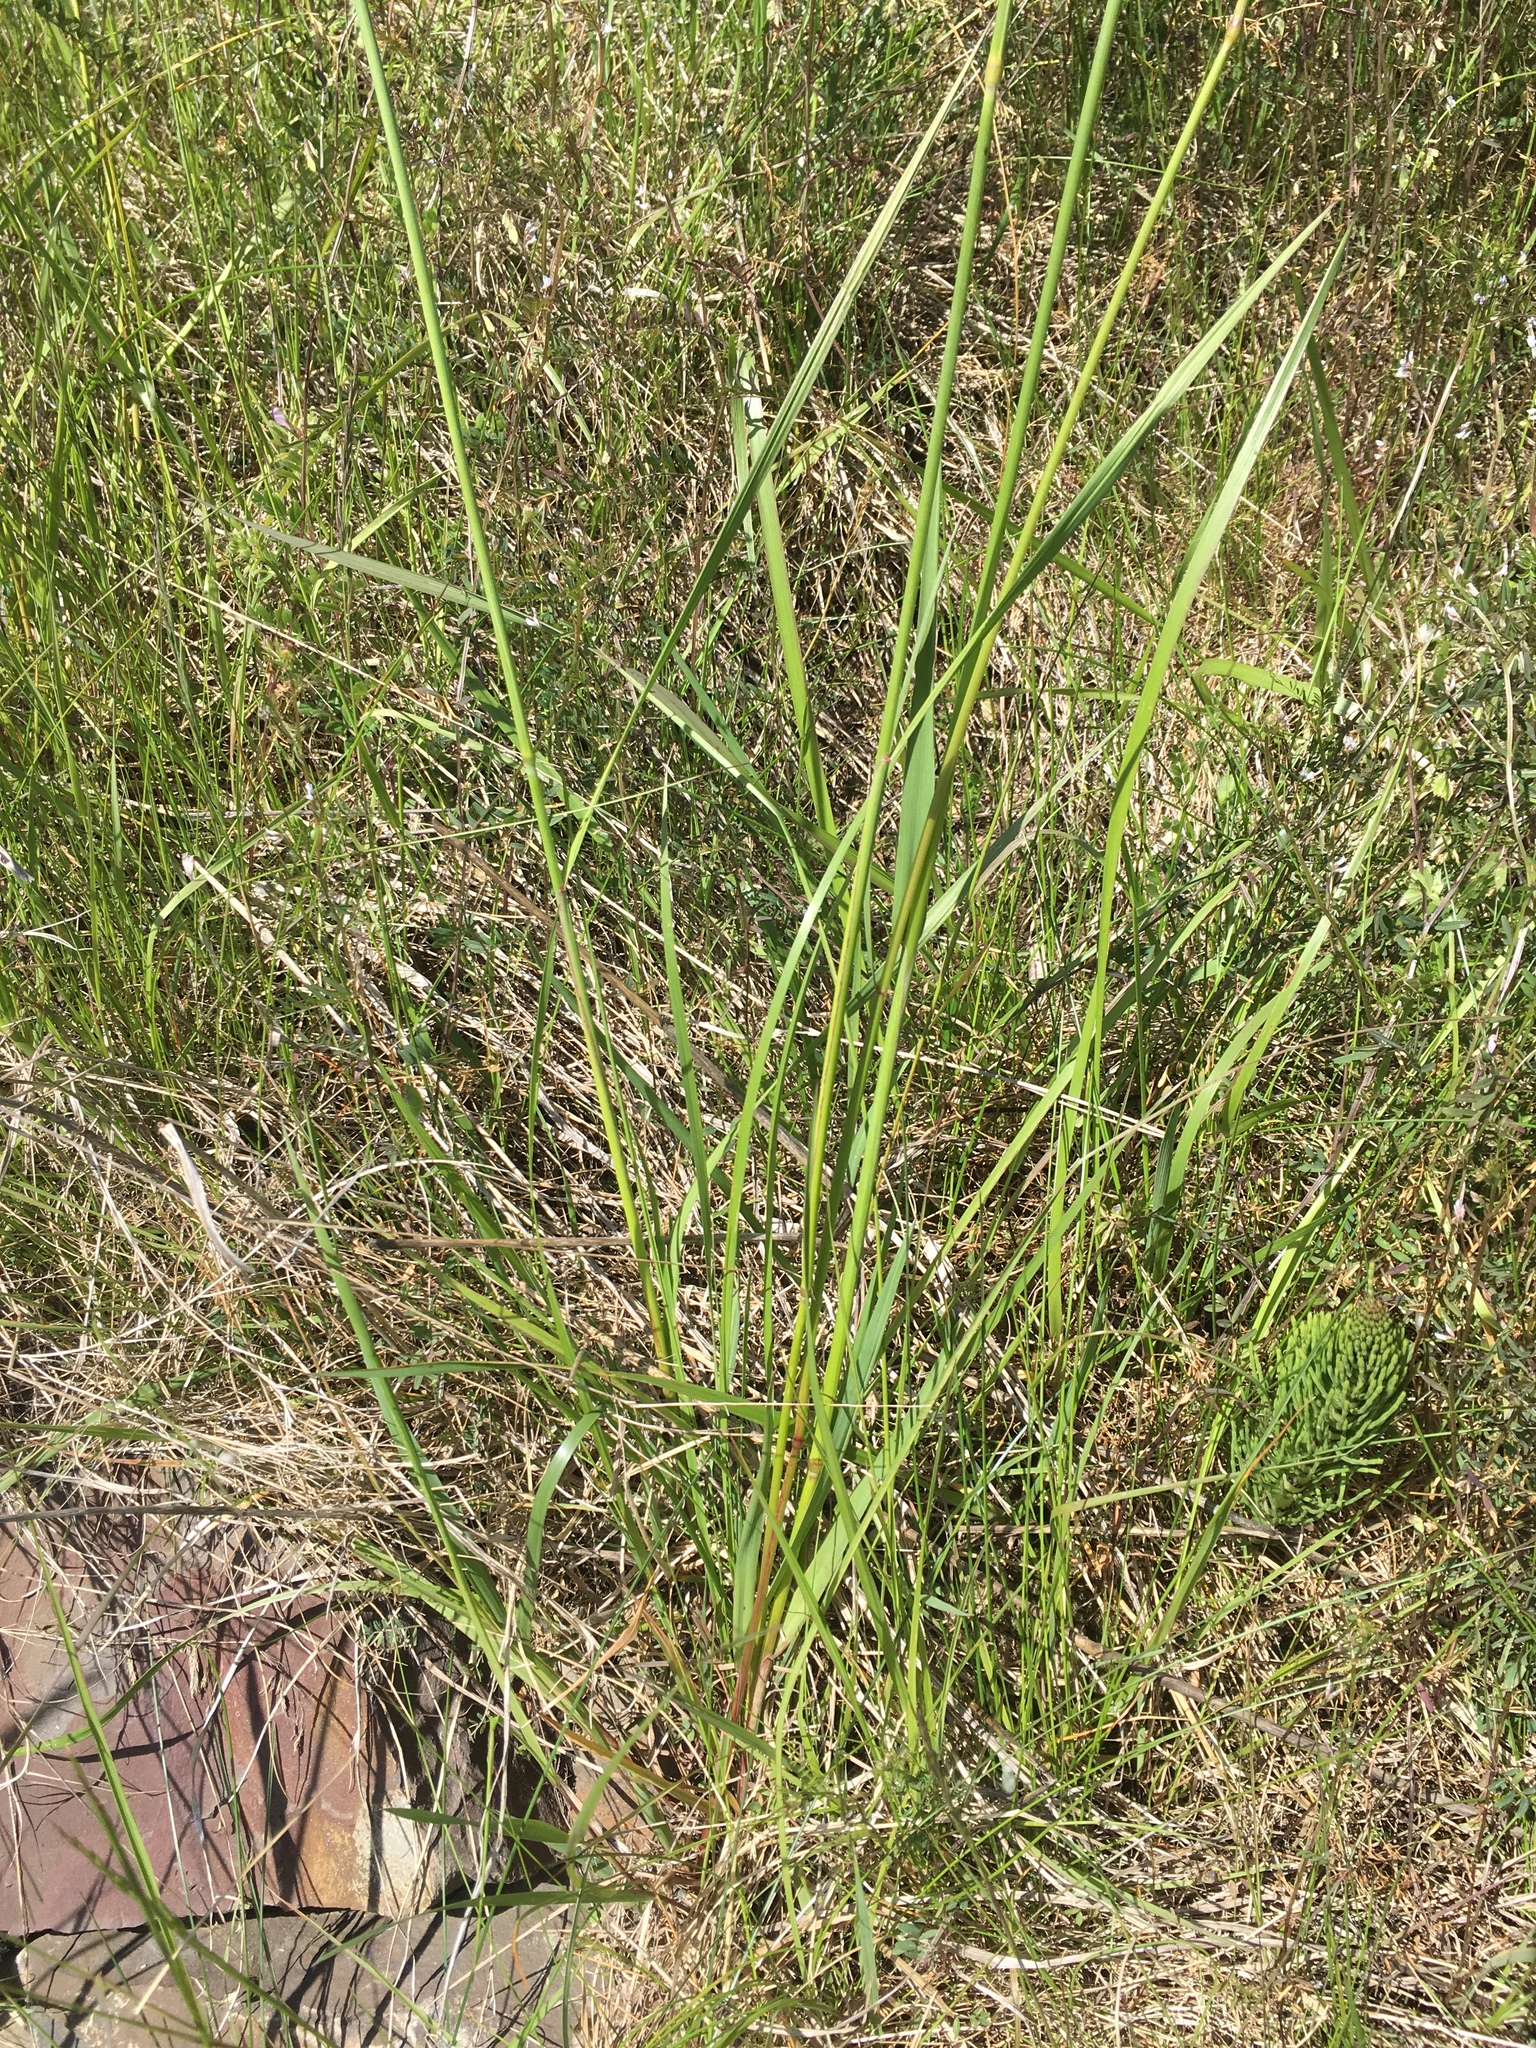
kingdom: Plantae
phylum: Tracheophyta
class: Liliopsida
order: Poales
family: Poaceae
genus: Alopecurus
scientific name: Alopecurus pratensis
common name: Meadow foxtail
